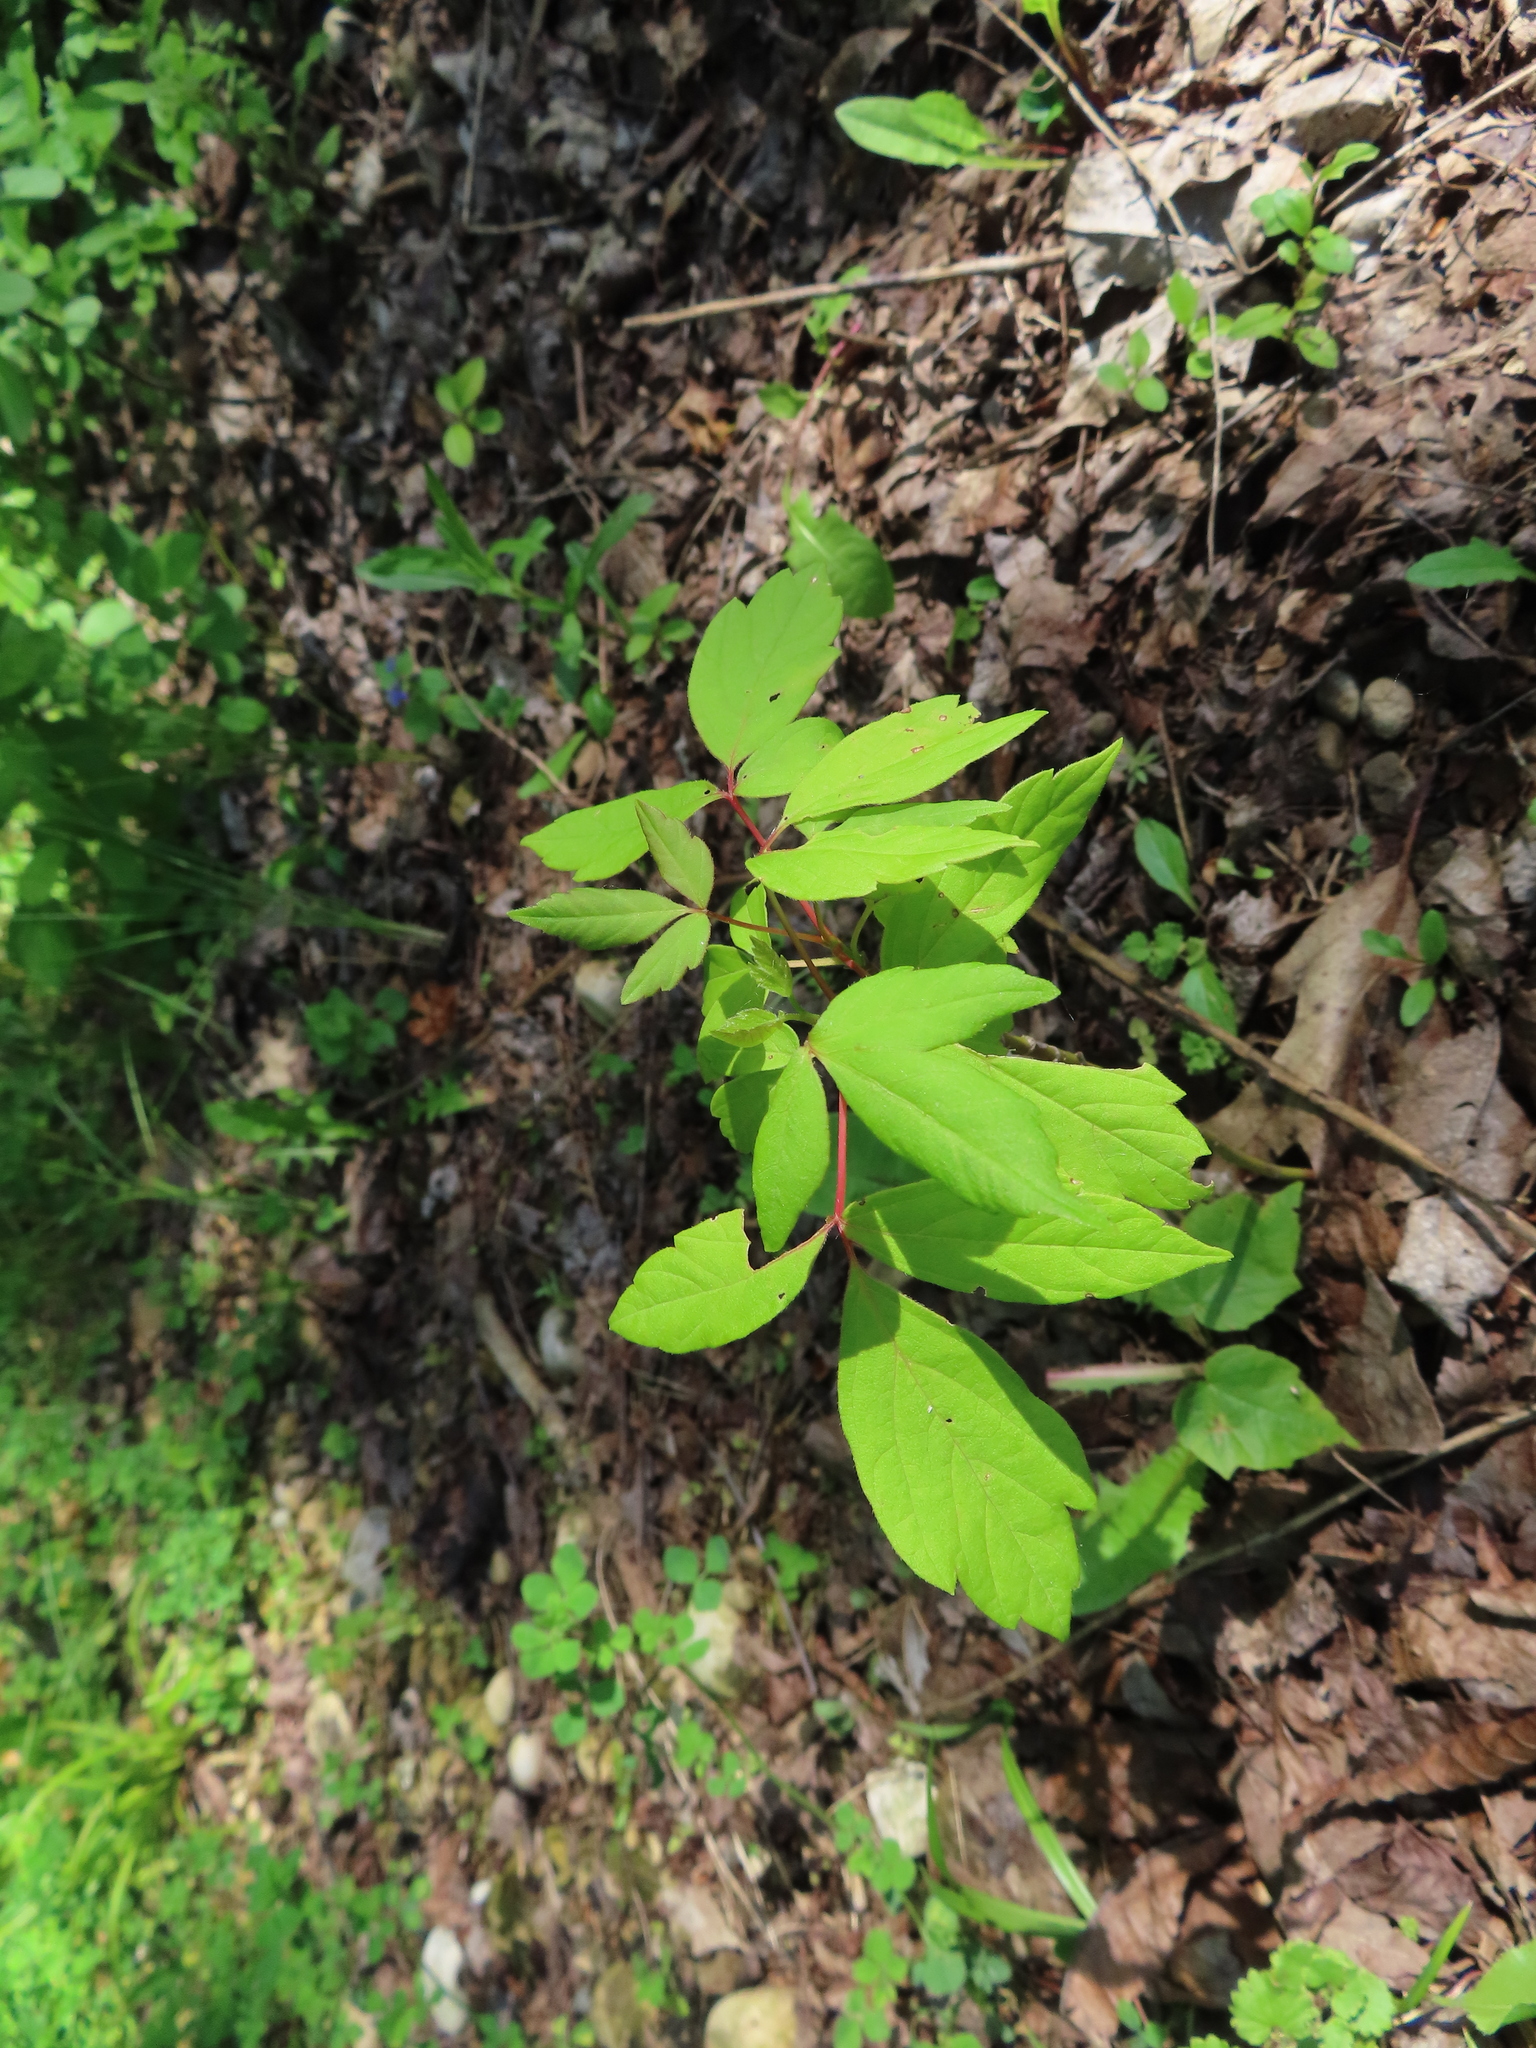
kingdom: Plantae
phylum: Tracheophyta
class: Magnoliopsida
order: Sapindales
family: Sapindaceae
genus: Acer
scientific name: Acer negundo
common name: Ashleaf maple
